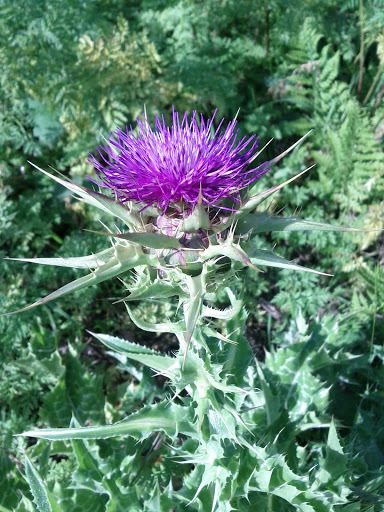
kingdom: Plantae
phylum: Tracheophyta
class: Magnoliopsida
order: Asterales
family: Asteraceae
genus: Silybum
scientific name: Silybum marianum
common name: Milk thistle
